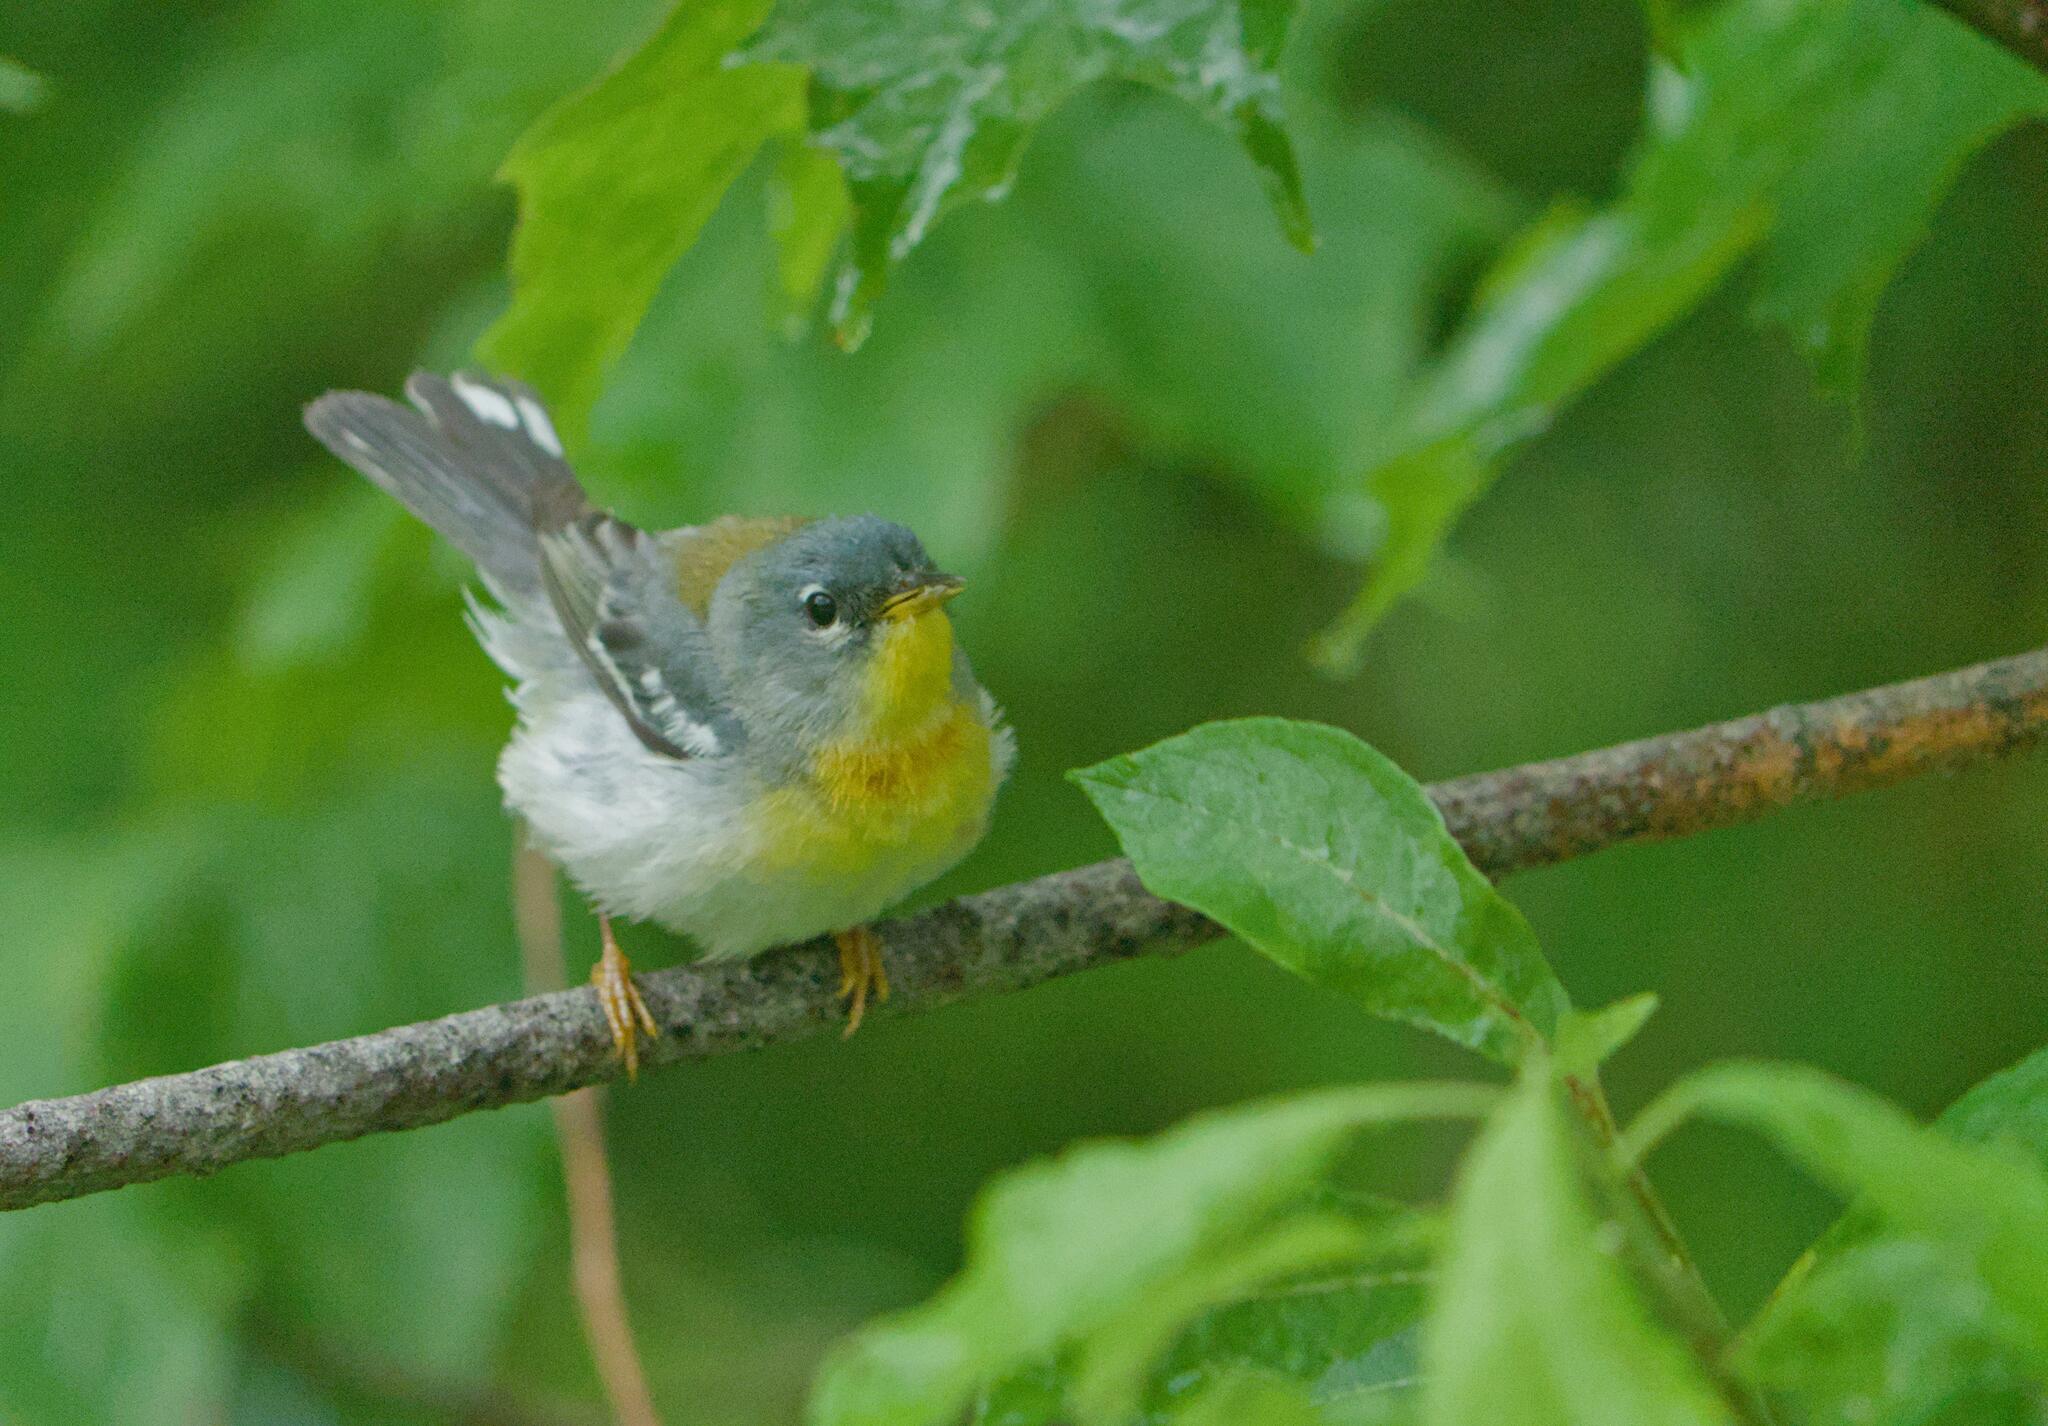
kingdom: Animalia
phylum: Chordata
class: Aves
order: Passeriformes
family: Parulidae
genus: Setophaga
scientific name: Setophaga americana
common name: Northern parula
